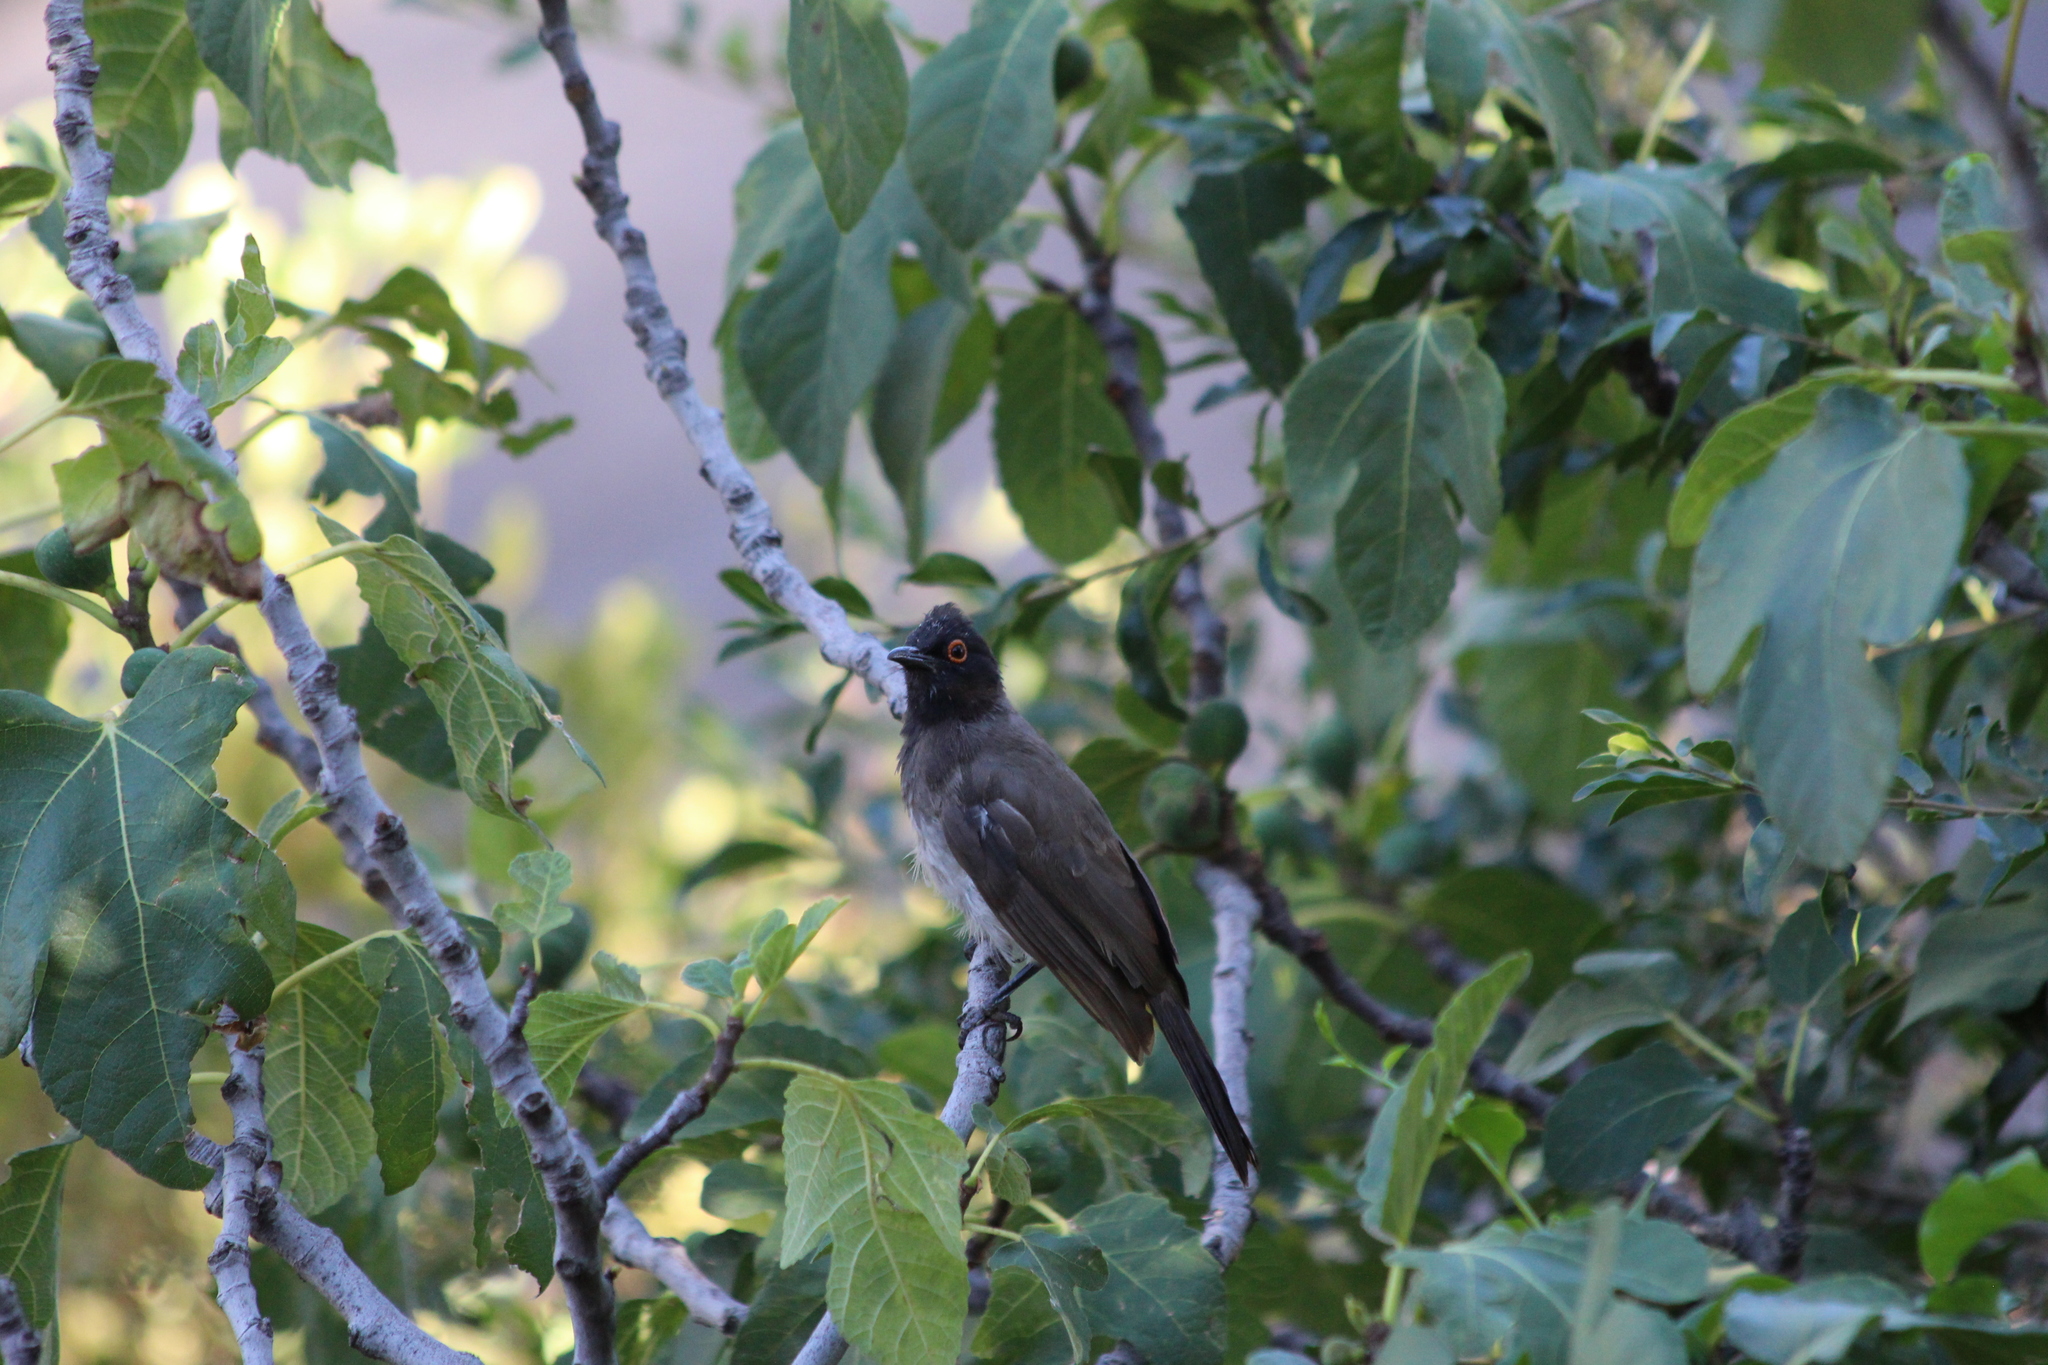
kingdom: Animalia
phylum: Chordata
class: Aves
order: Passeriformes
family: Pycnonotidae
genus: Pycnonotus
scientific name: Pycnonotus nigricans
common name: African red-eyed bulbul
